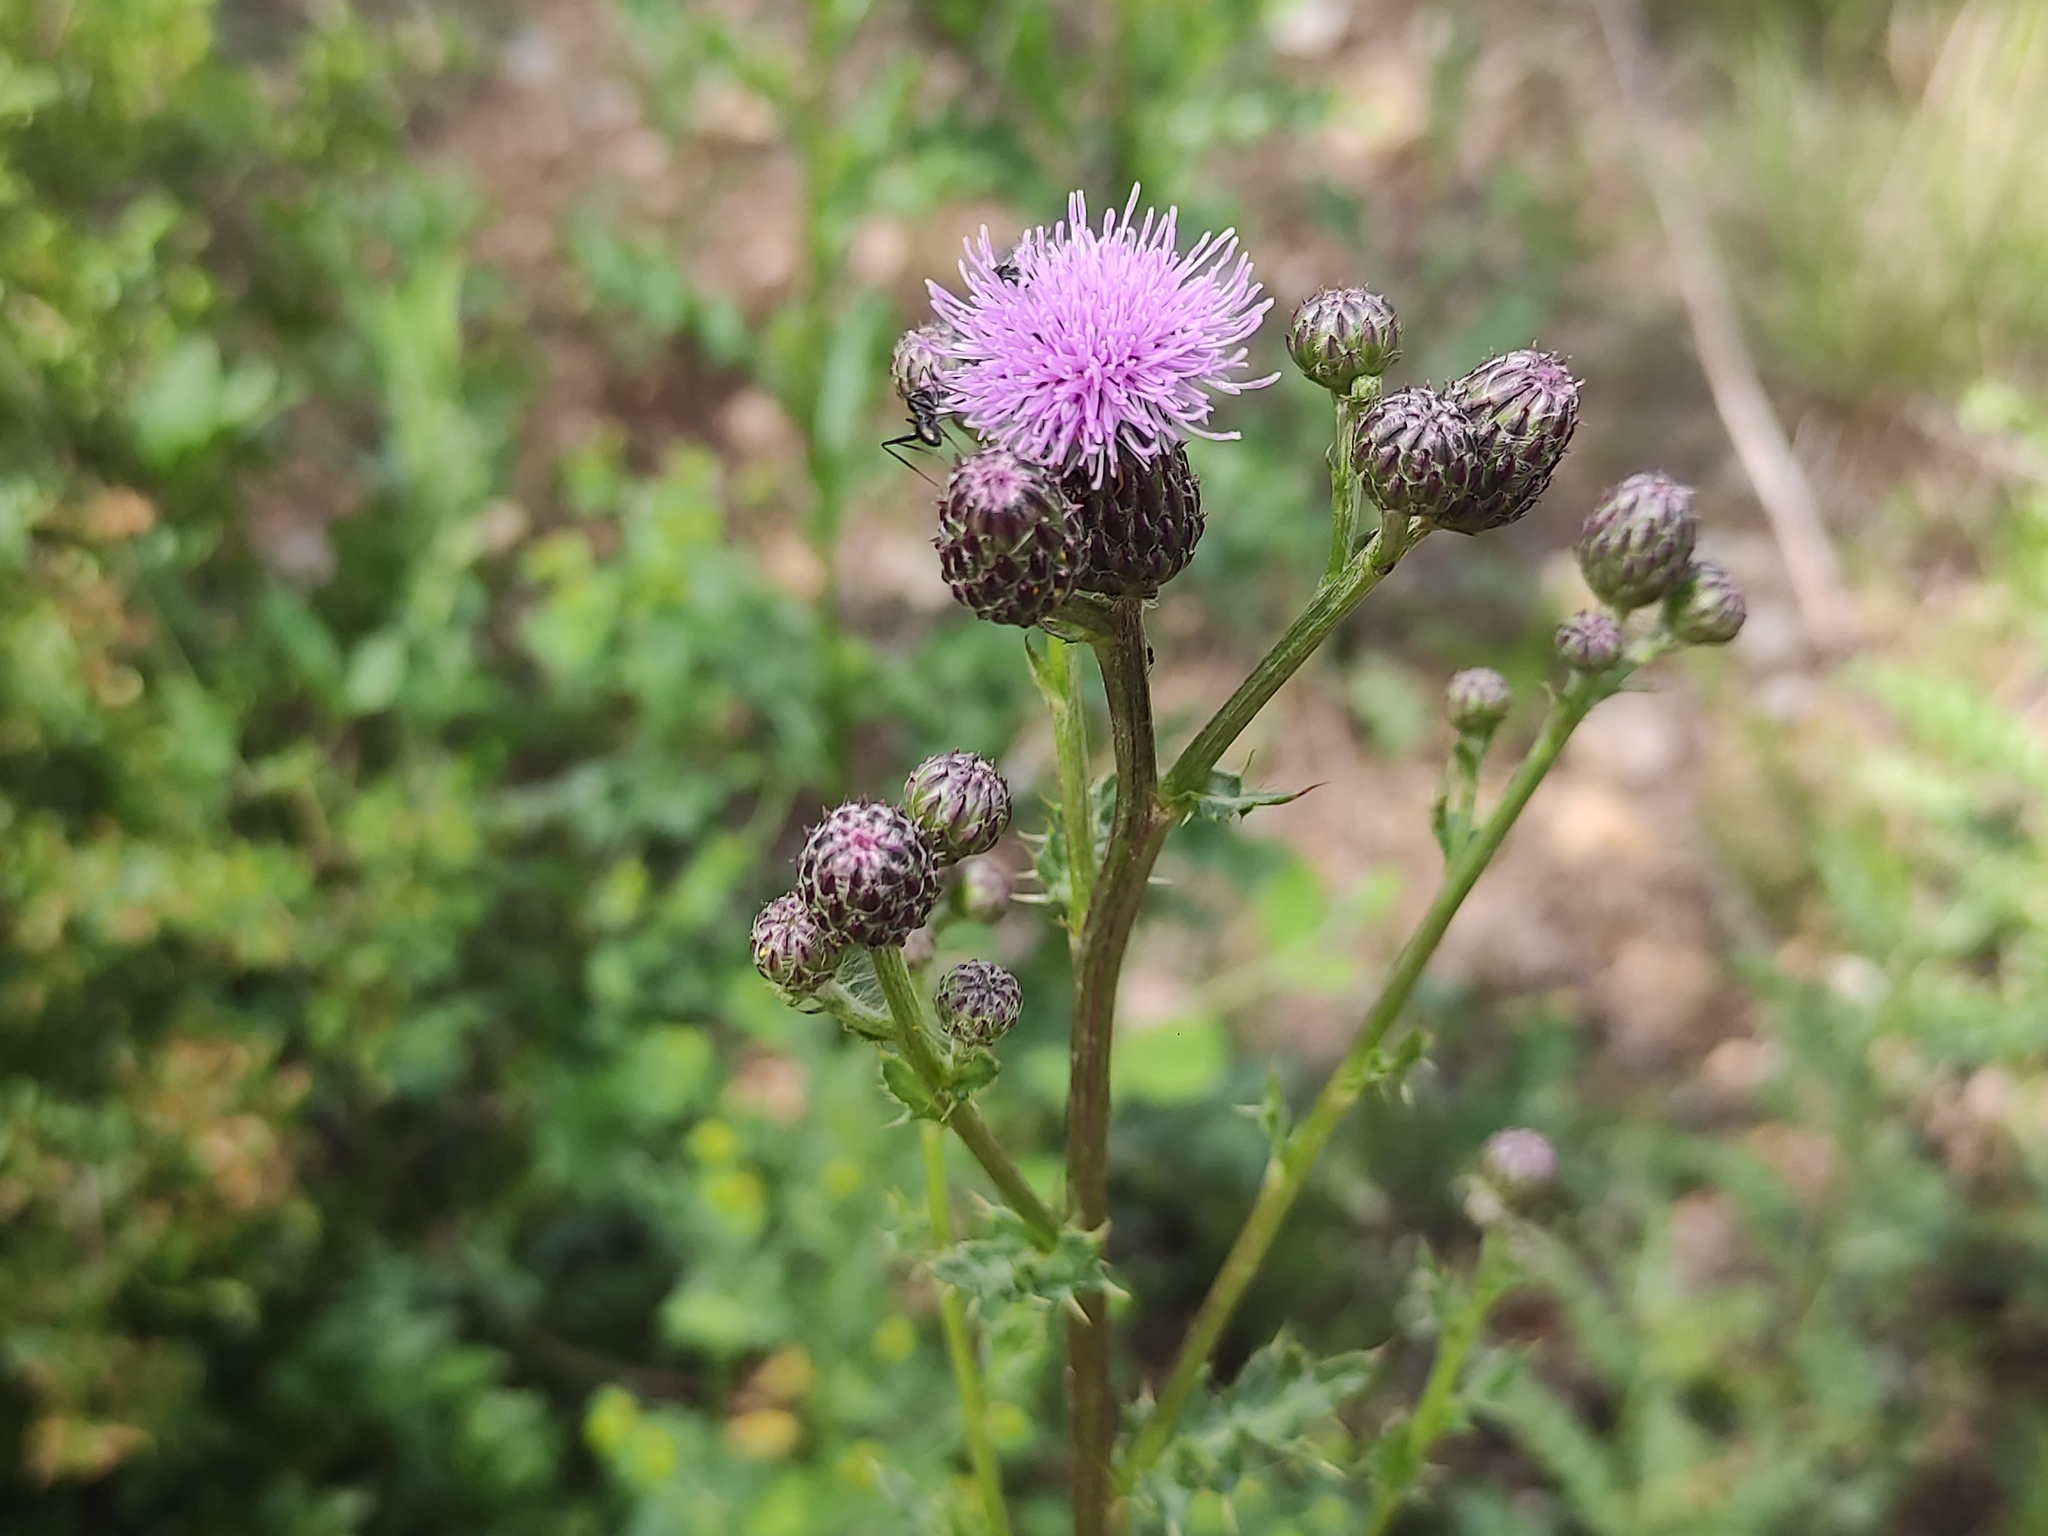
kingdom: Plantae
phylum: Tracheophyta
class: Magnoliopsida
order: Asterales
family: Asteraceae
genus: Cirsium
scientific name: Cirsium arvense
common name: Creeping thistle
